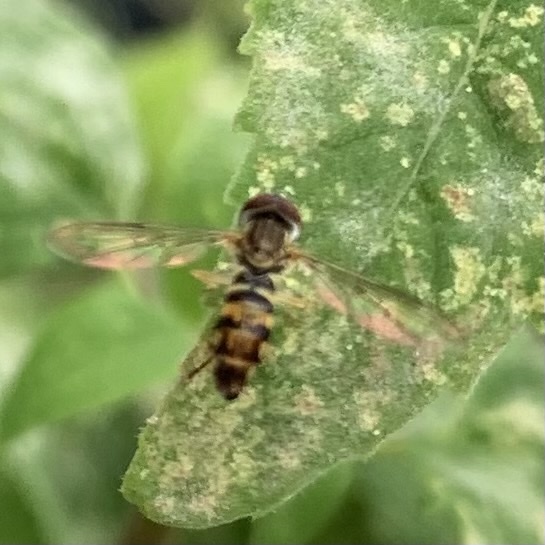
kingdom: Animalia
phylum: Arthropoda
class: Insecta
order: Diptera
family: Syrphidae
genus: Toxomerus
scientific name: Toxomerus geminatus
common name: Eastern calligrapher
